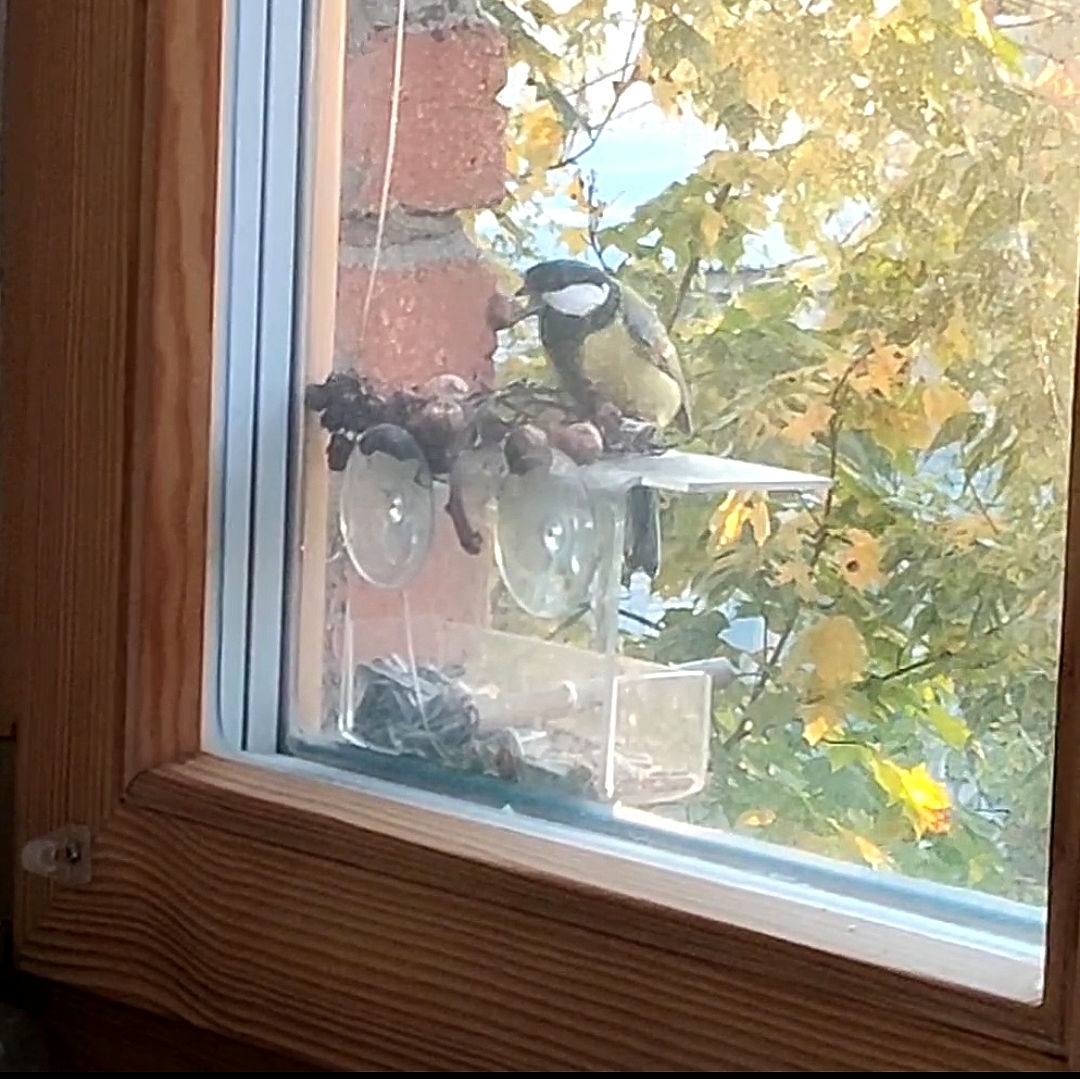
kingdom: Animalia
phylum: Chordata
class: Aves
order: Passeriformes
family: Paridae
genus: Parus
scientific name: Parus major
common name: Great tit
